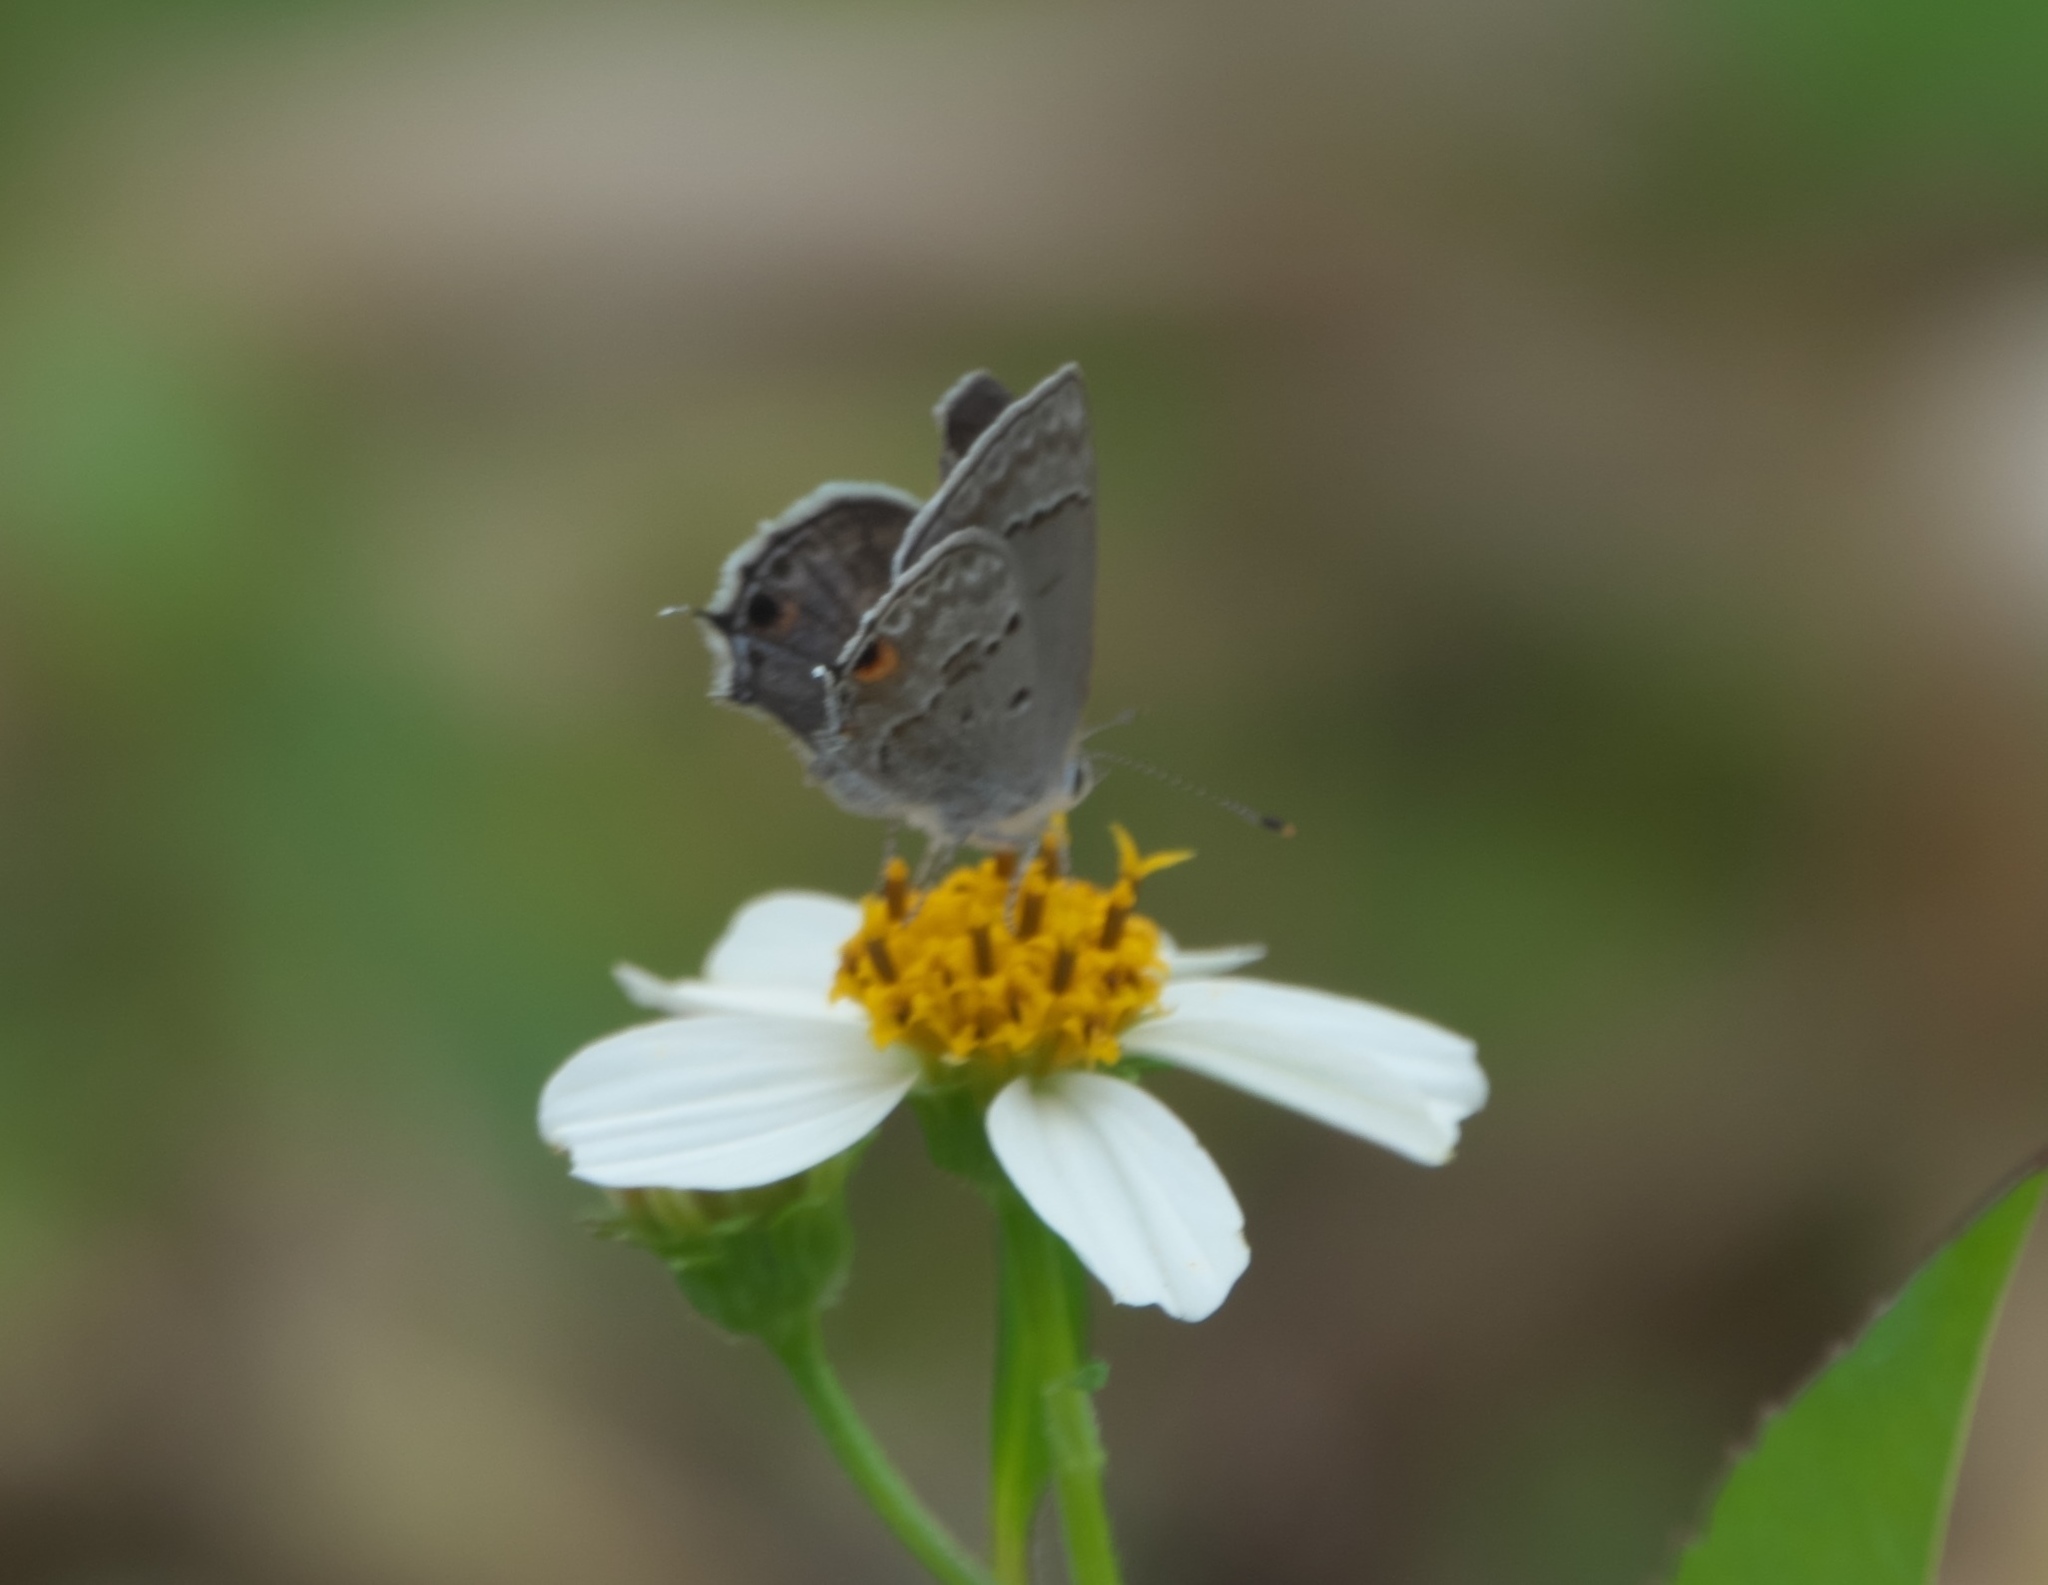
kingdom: Animalia
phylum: Arthropoda
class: Insecta
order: Lepidoptera
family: Lycaenidae
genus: Callicista
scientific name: Callicista columella
